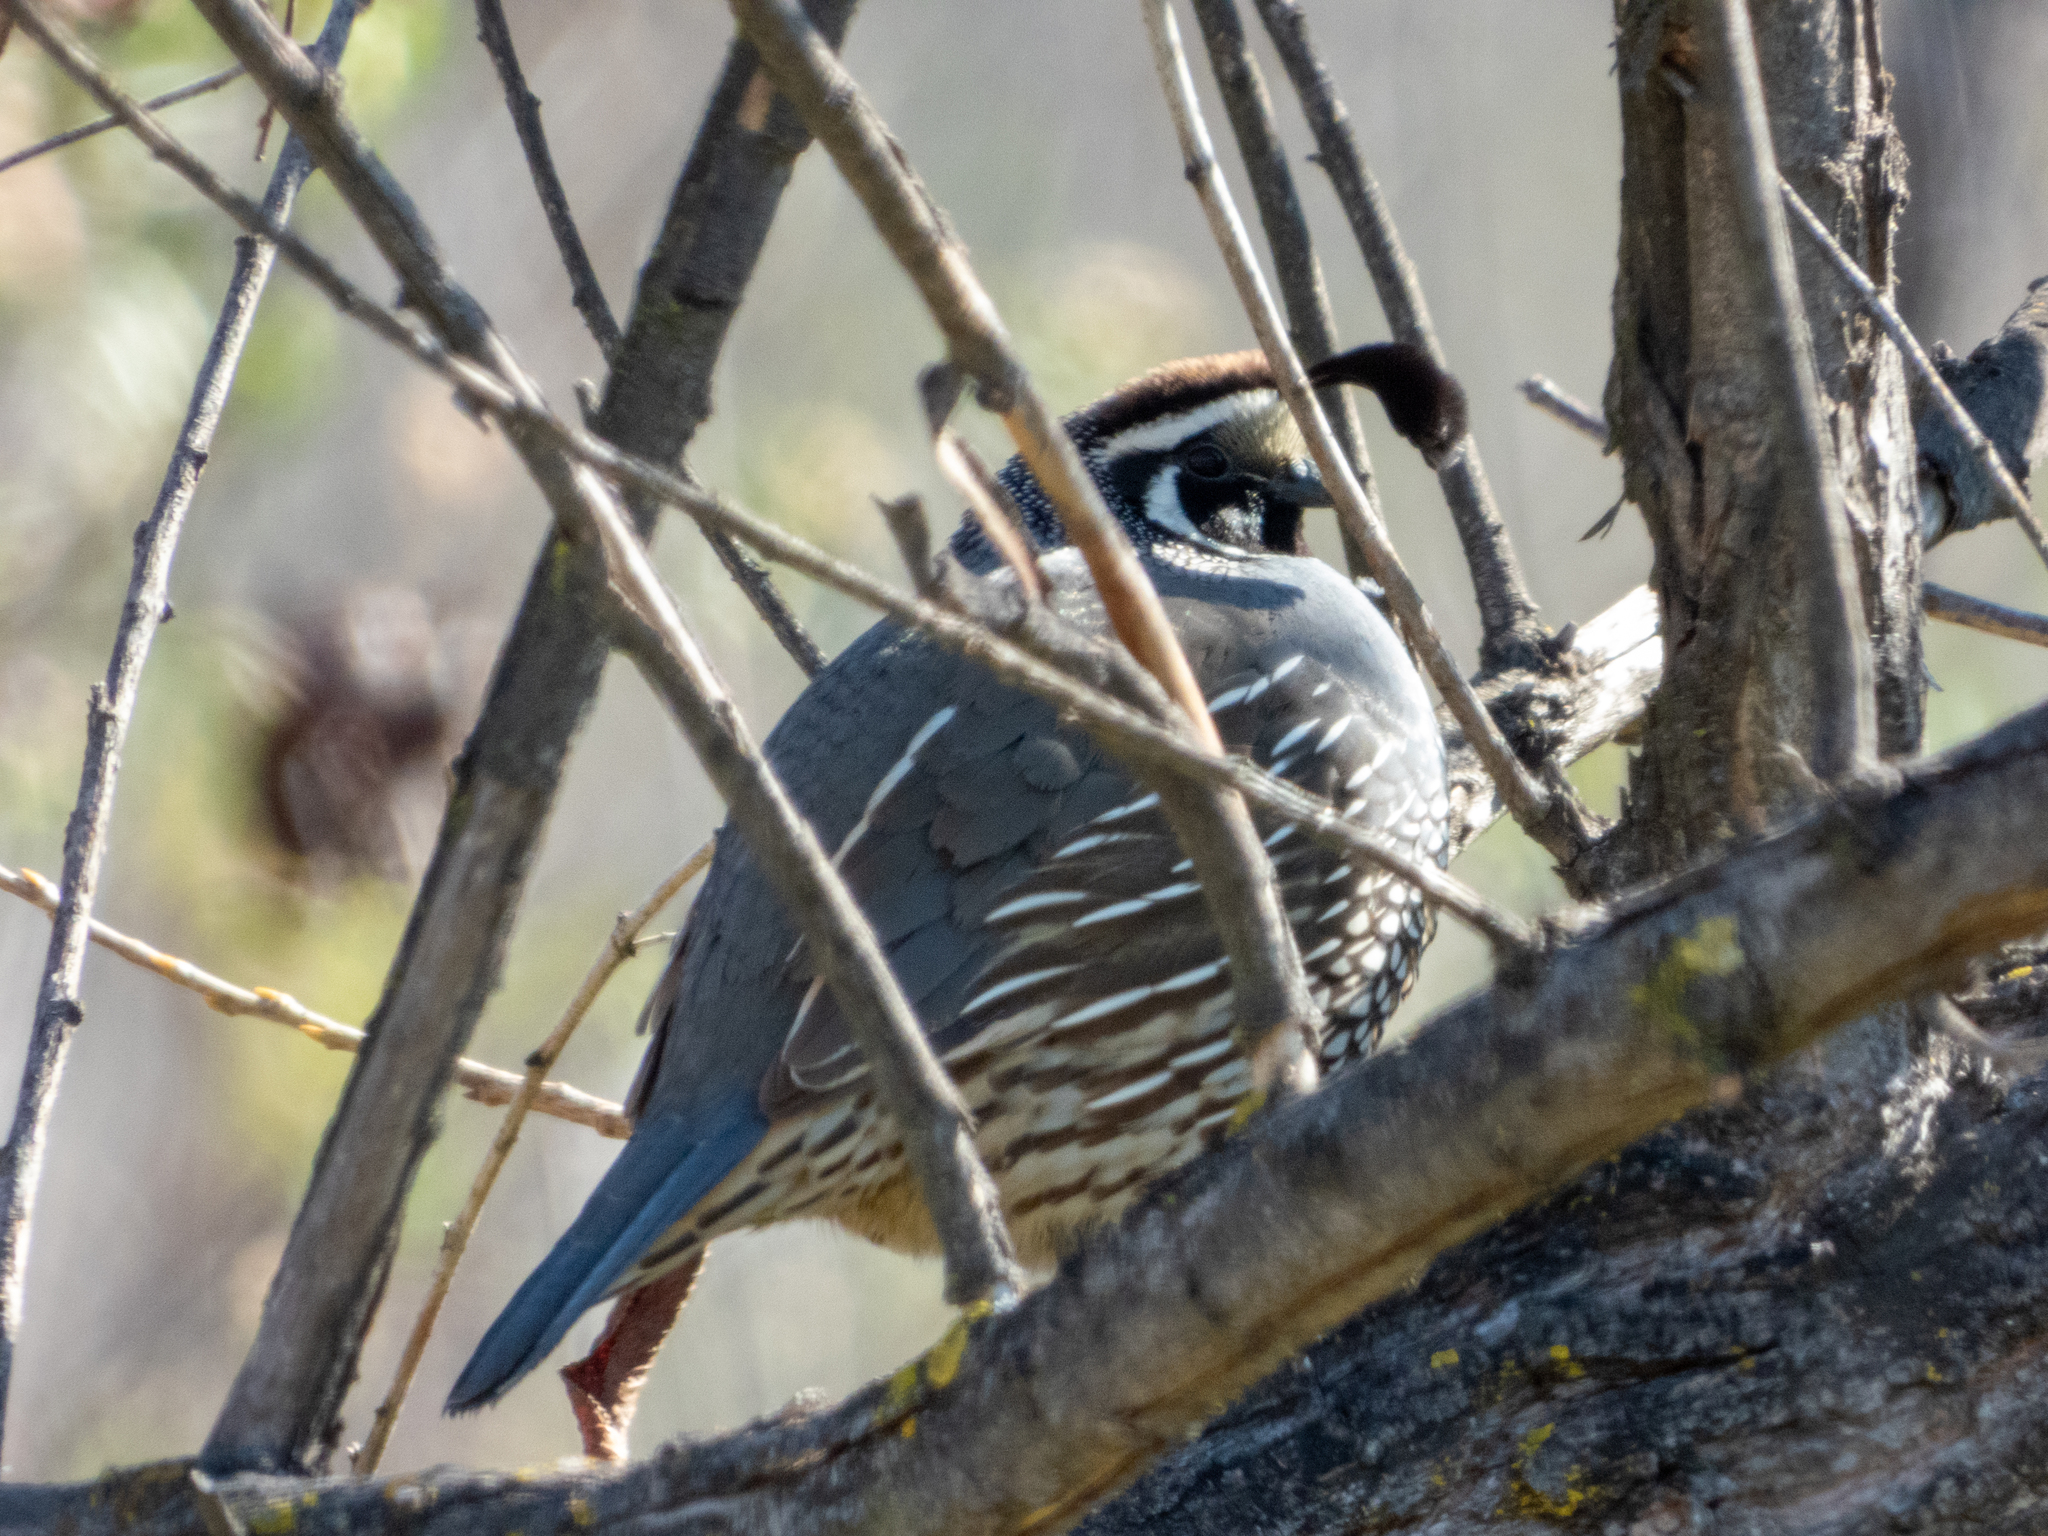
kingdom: Animalia
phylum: Chordata
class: Aves
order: Galliformes
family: Odontophoridae
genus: Callipepla
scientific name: Callipepla californica
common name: California quail
